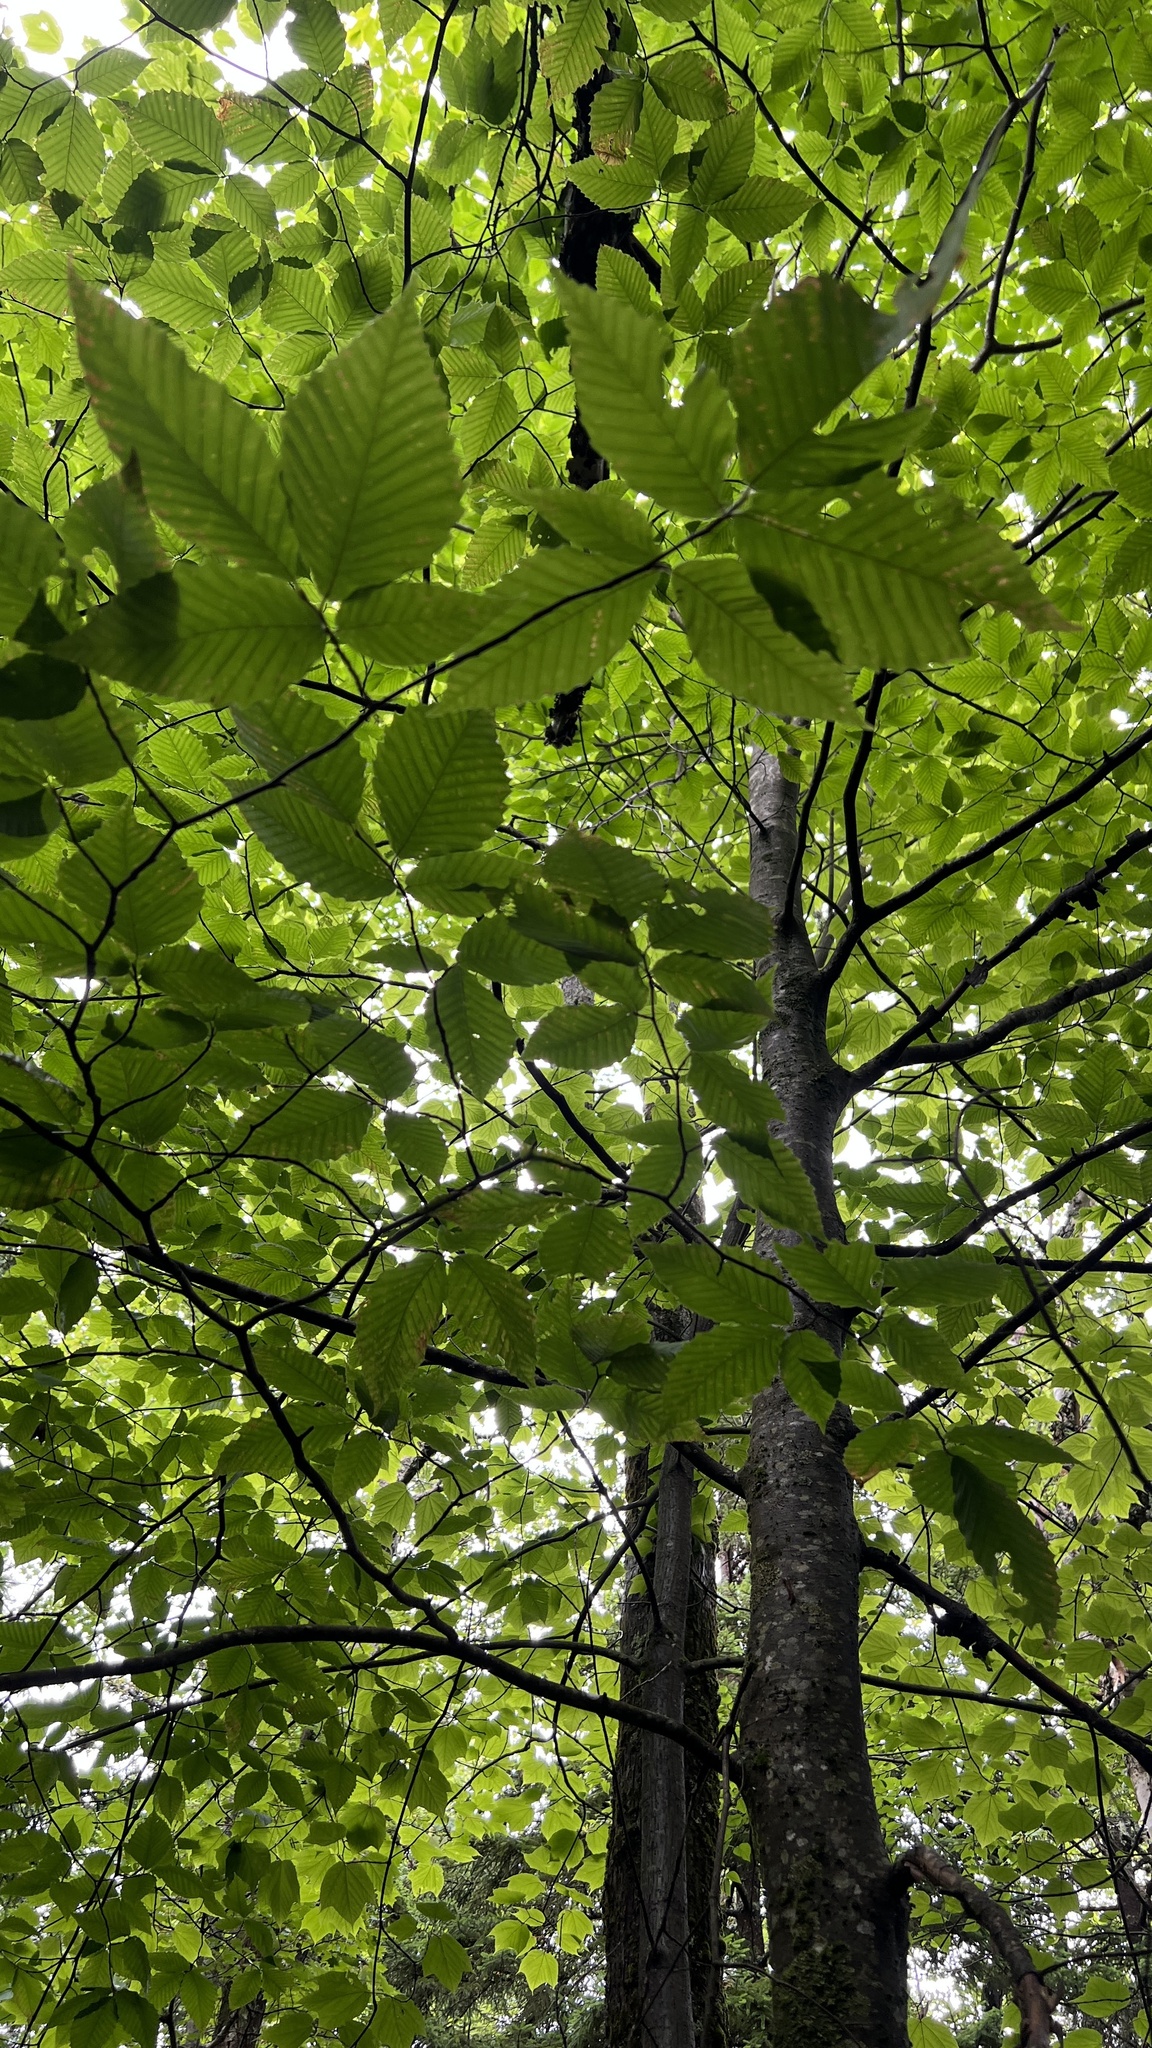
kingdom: Plantae
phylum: Tracheophyta
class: Magnoliopsida
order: Fagales
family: Fagaceae
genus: Fagus
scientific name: Fagus grandifolia
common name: American beech
